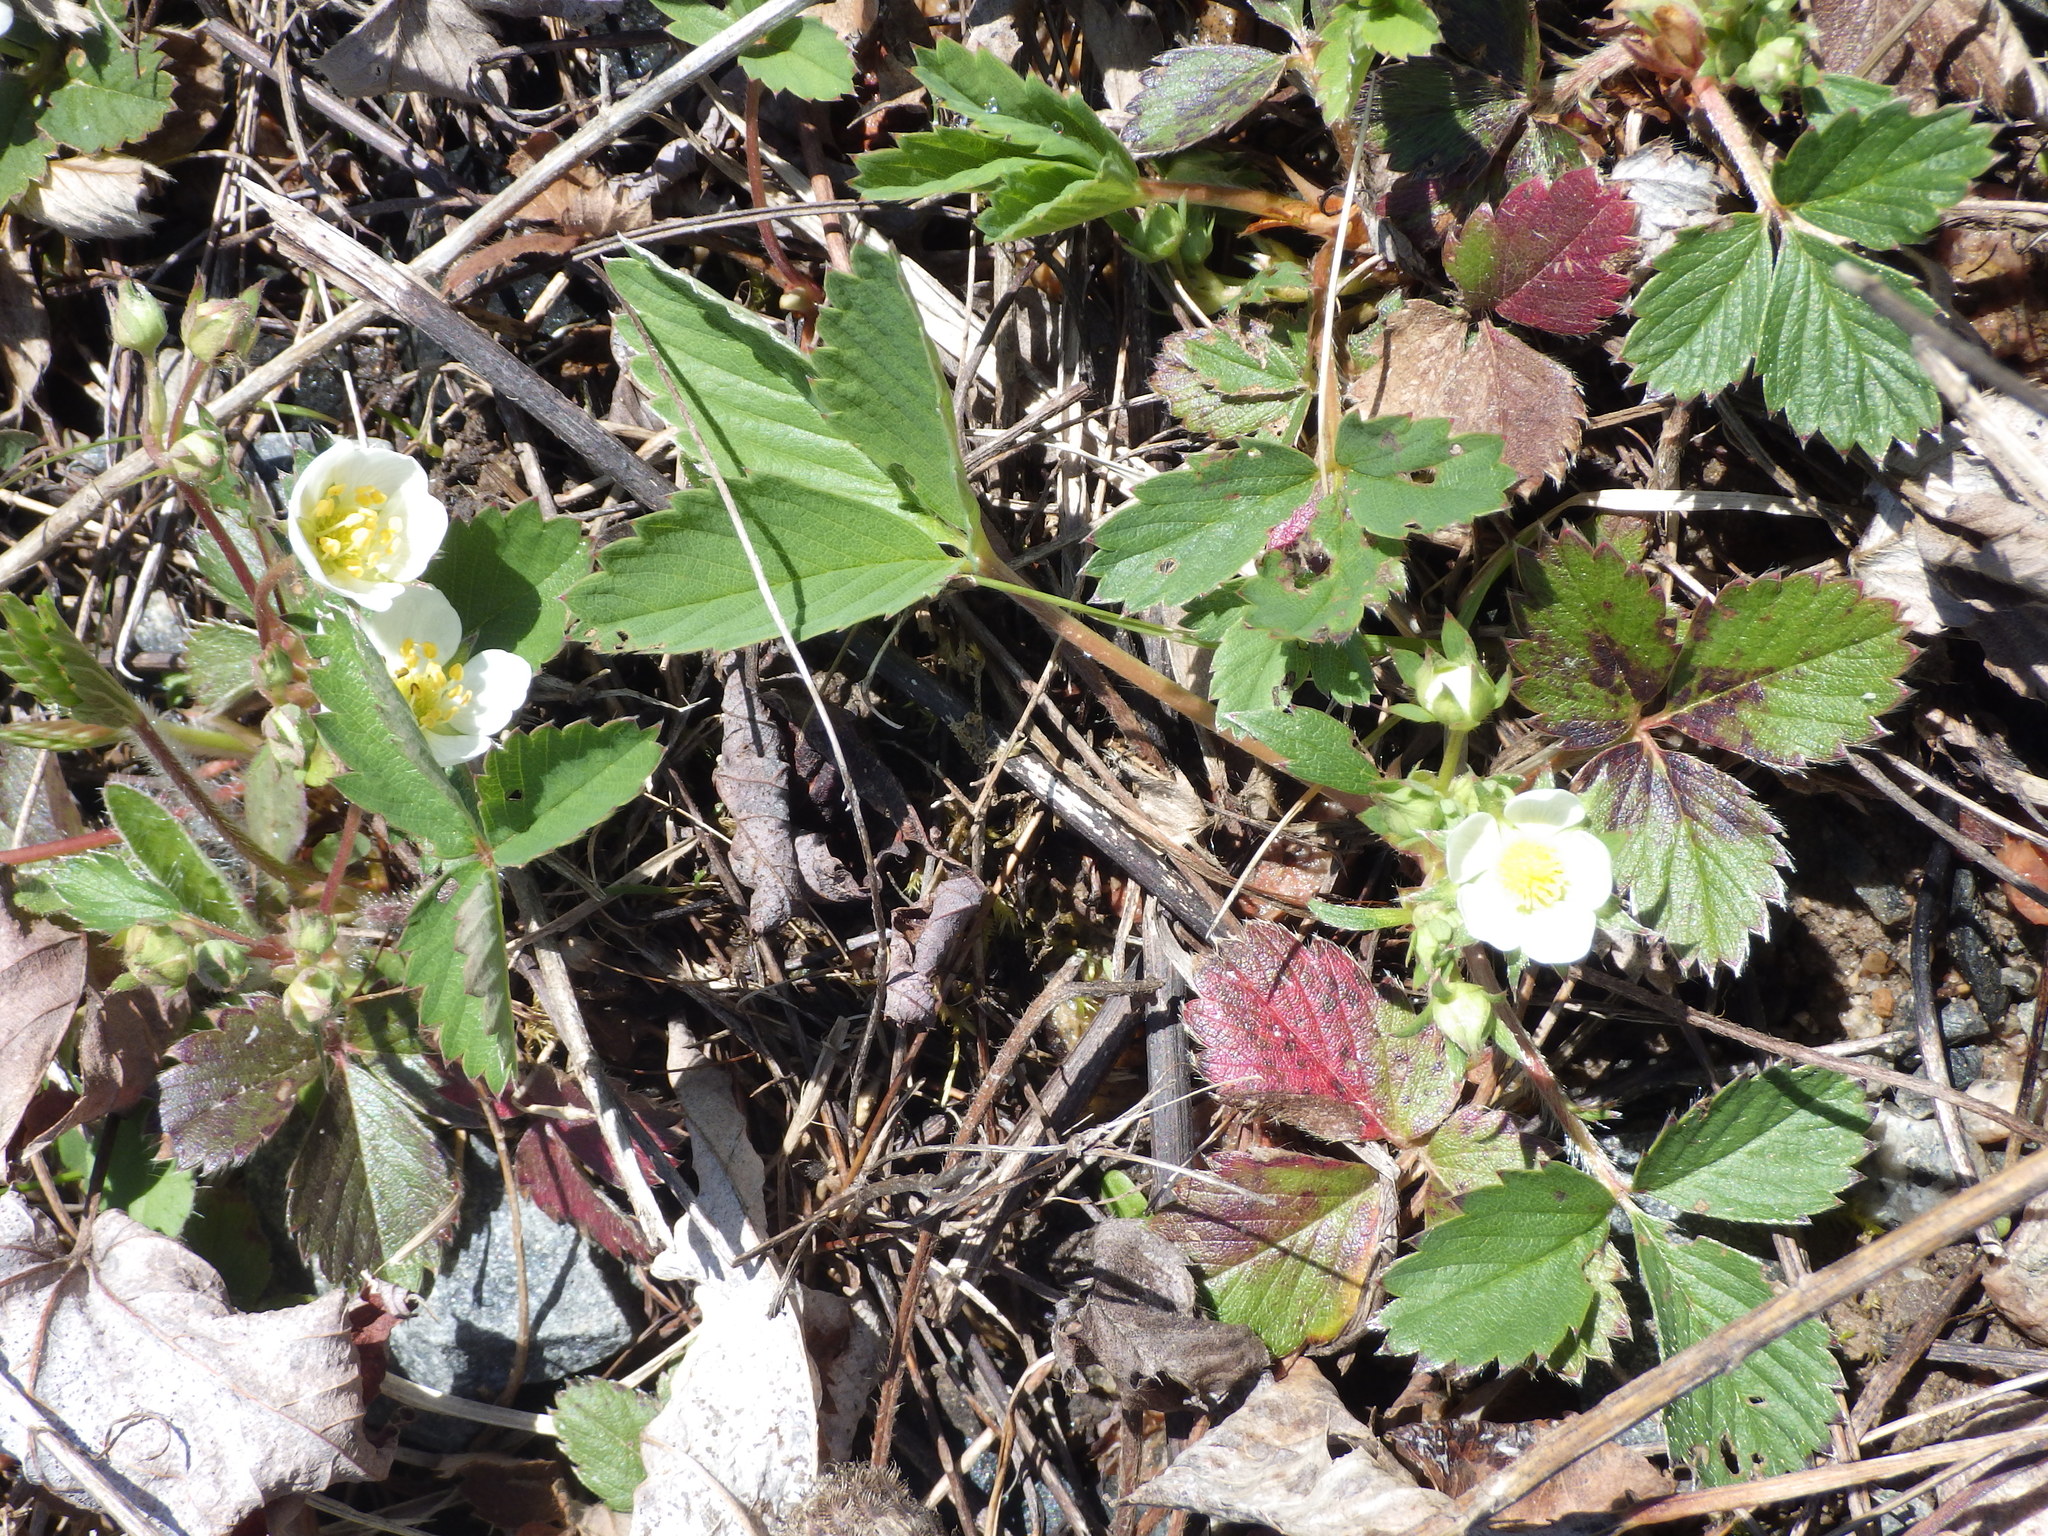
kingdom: Plantae
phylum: Tracheophyta
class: Magnoliopsida
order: Rosales
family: Rosaceae
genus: Fragaria
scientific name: Fragaria virginiana
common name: Thickleaved wild strawberry
